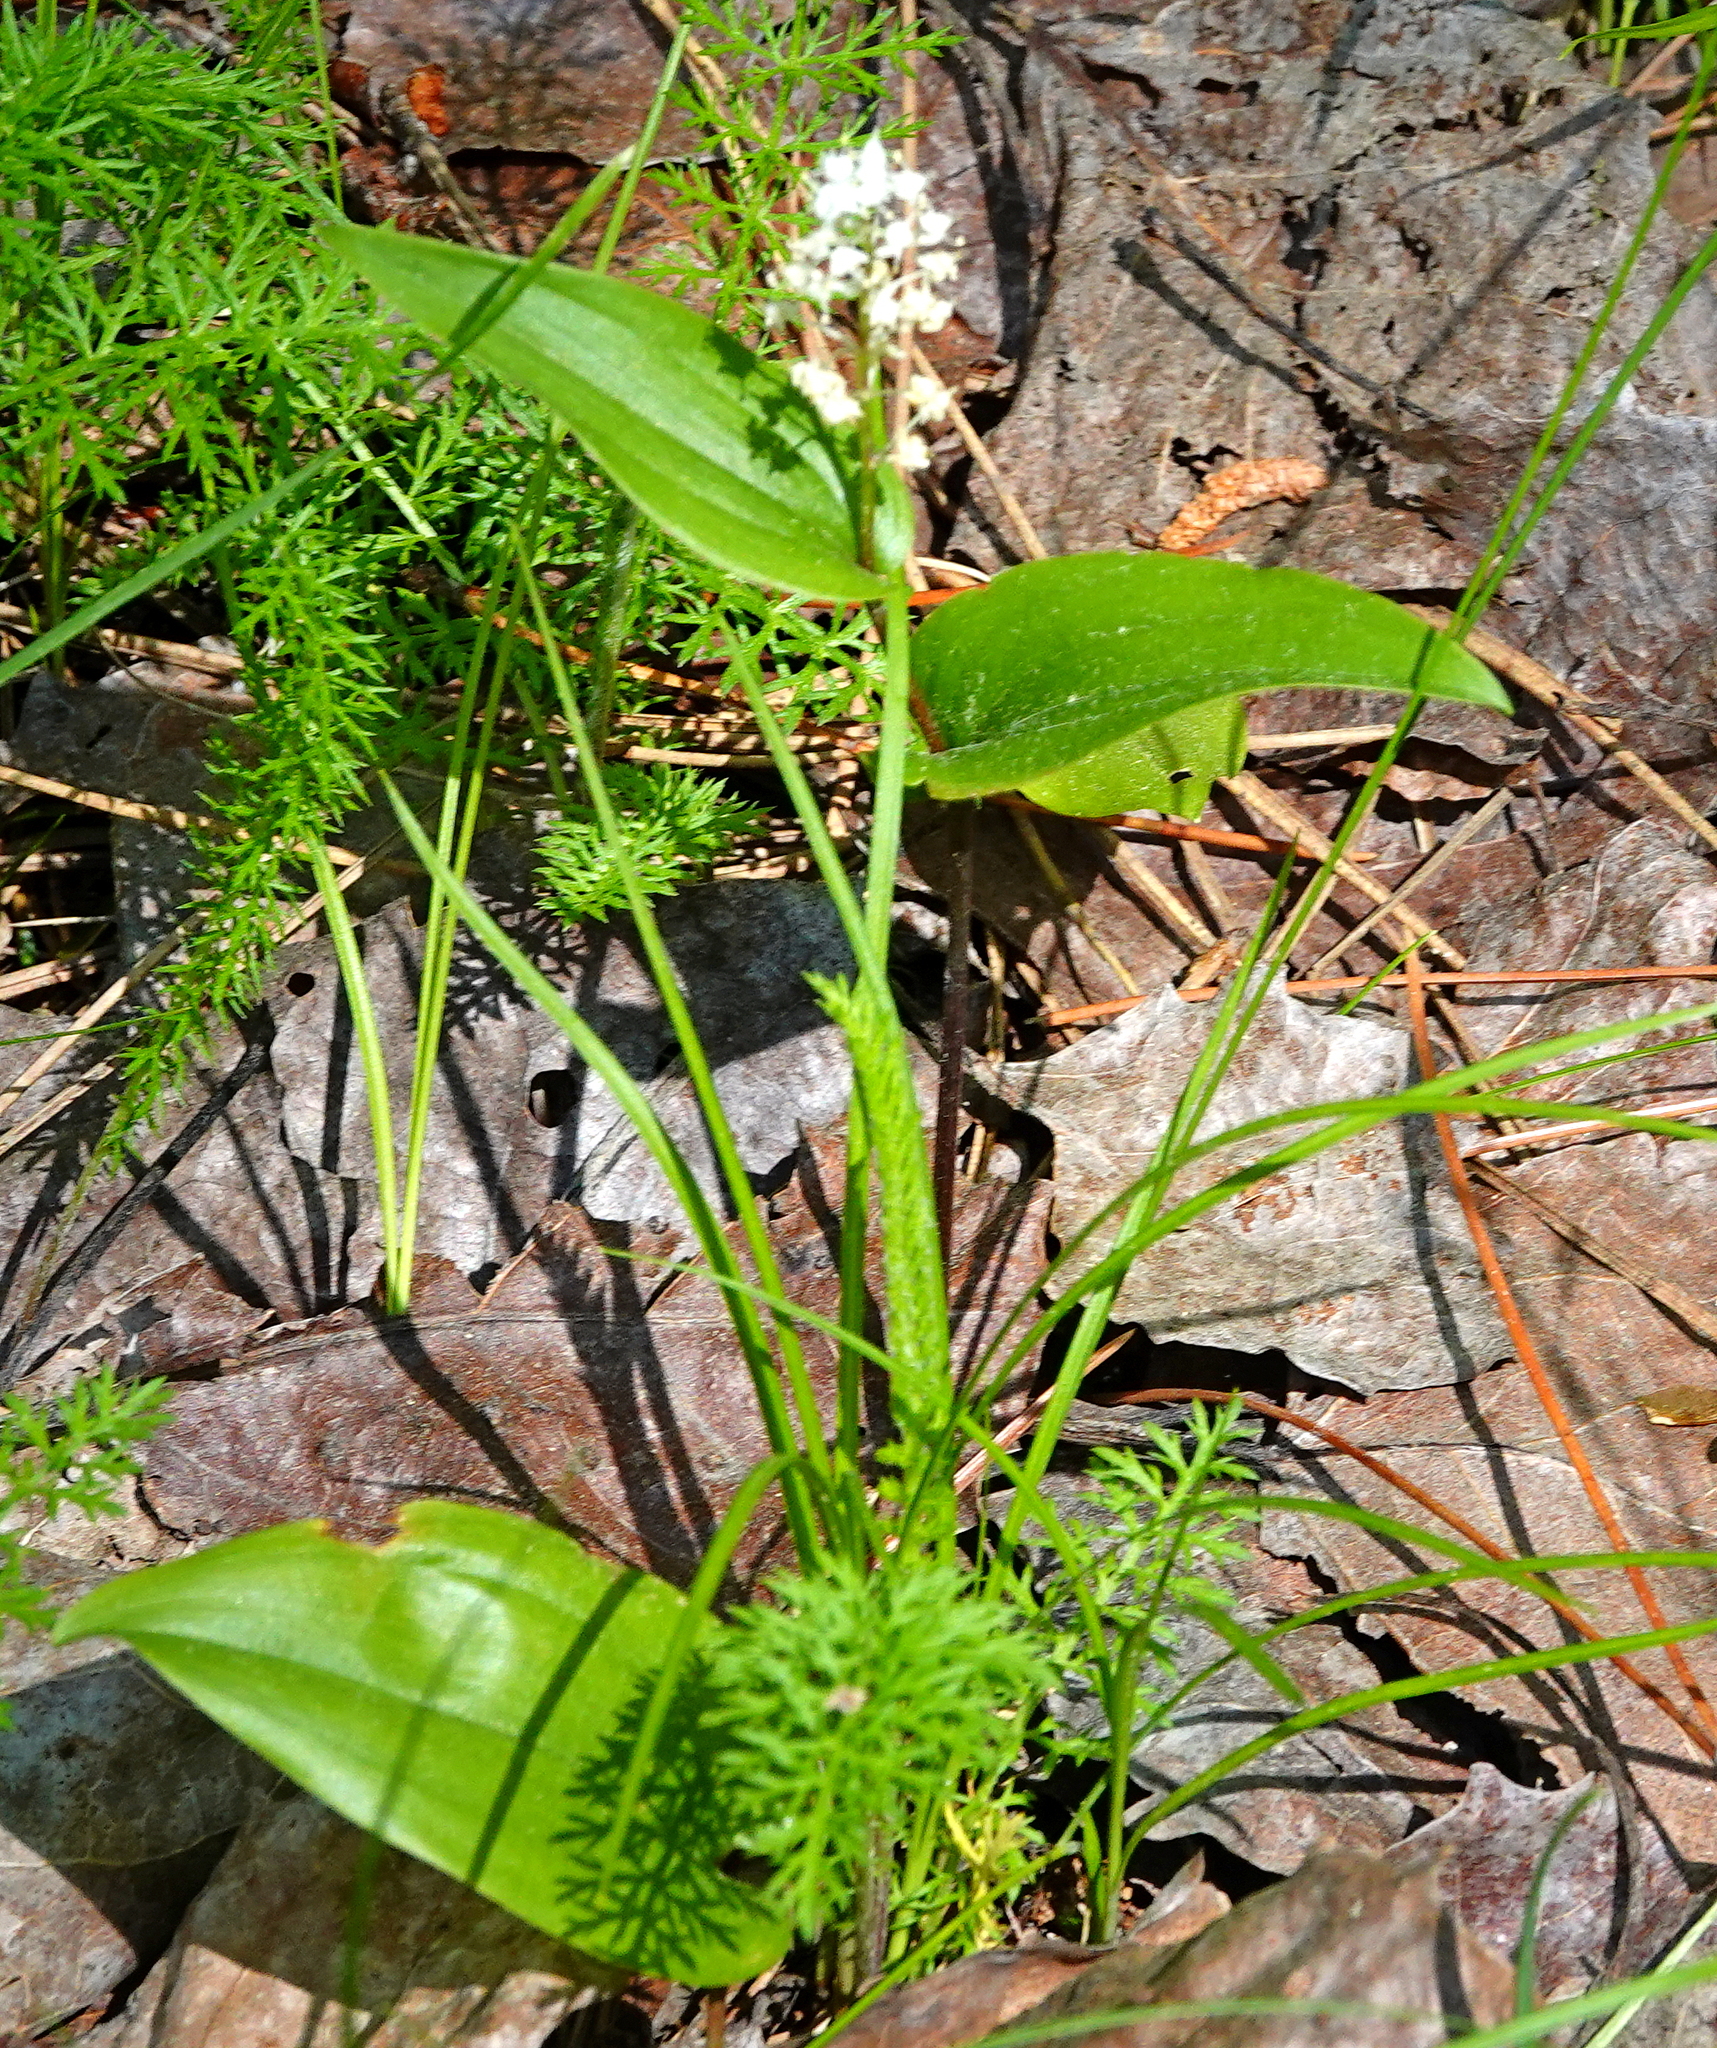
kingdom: Plantae
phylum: Tracheophyta
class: Liliopsida
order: Asparagales
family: Asparagaceae
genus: Maianthemum
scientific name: Maianthemum canadense
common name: False lily-of-the-valley
